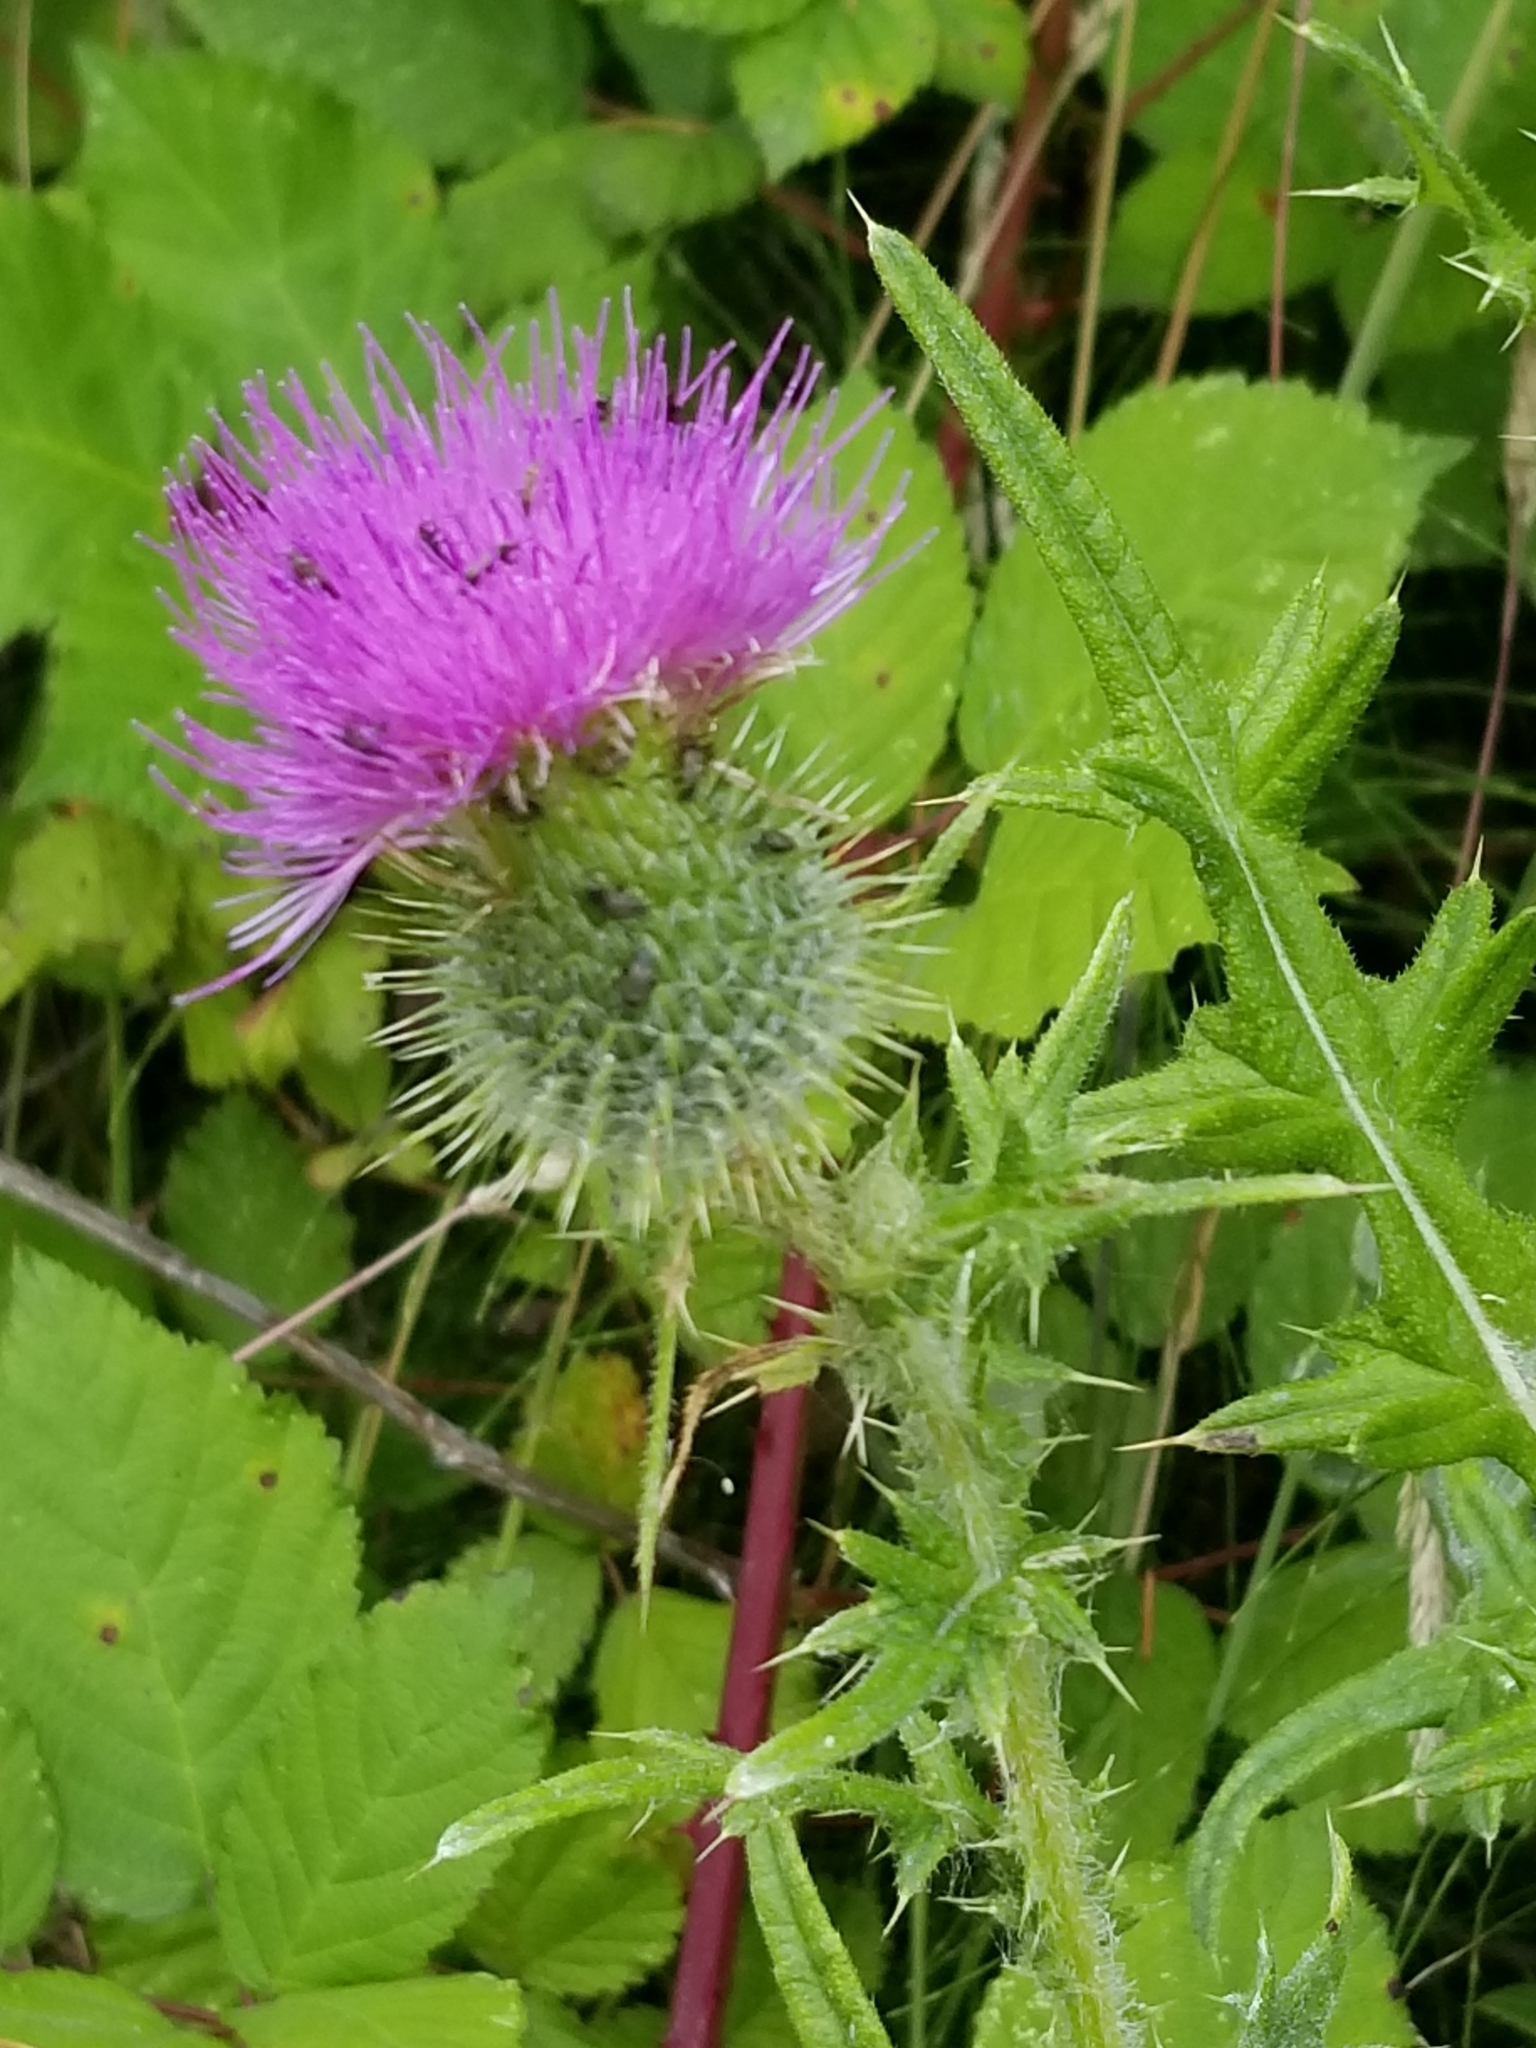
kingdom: Plantae
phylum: Tracheophyta
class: Magnoliopsida
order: Asterales
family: Asteraceae
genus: Cirsium
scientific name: Cirsium vulgare
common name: Bull thistle
